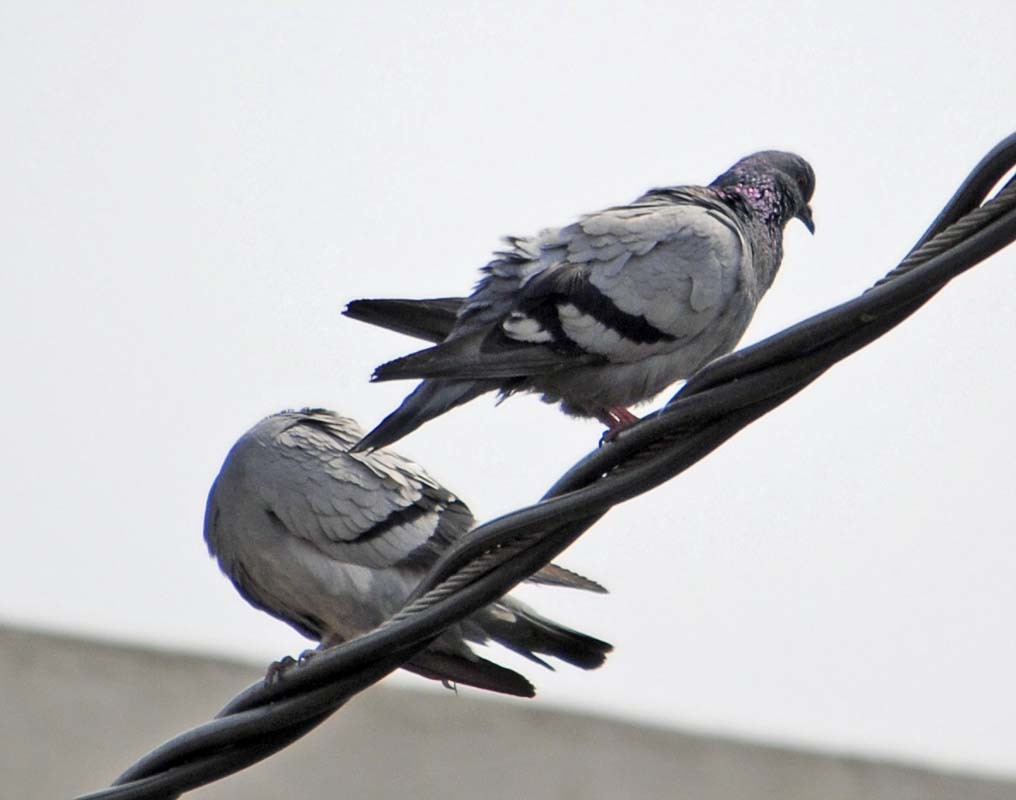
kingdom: Animalia
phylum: Chordata
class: Aves
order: Columbiformes
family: Columbidae
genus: Columba
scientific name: Columba livia
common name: Rock pigeon
